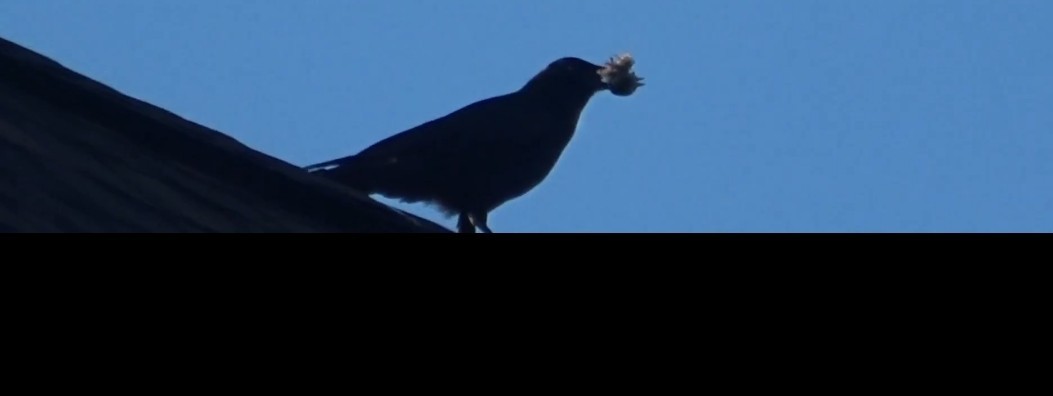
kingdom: Animalia
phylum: Chordata
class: Aves
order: Passeriformes
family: Corvidae
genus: Corvus
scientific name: Corvus brachyrhynchos
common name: American crow
